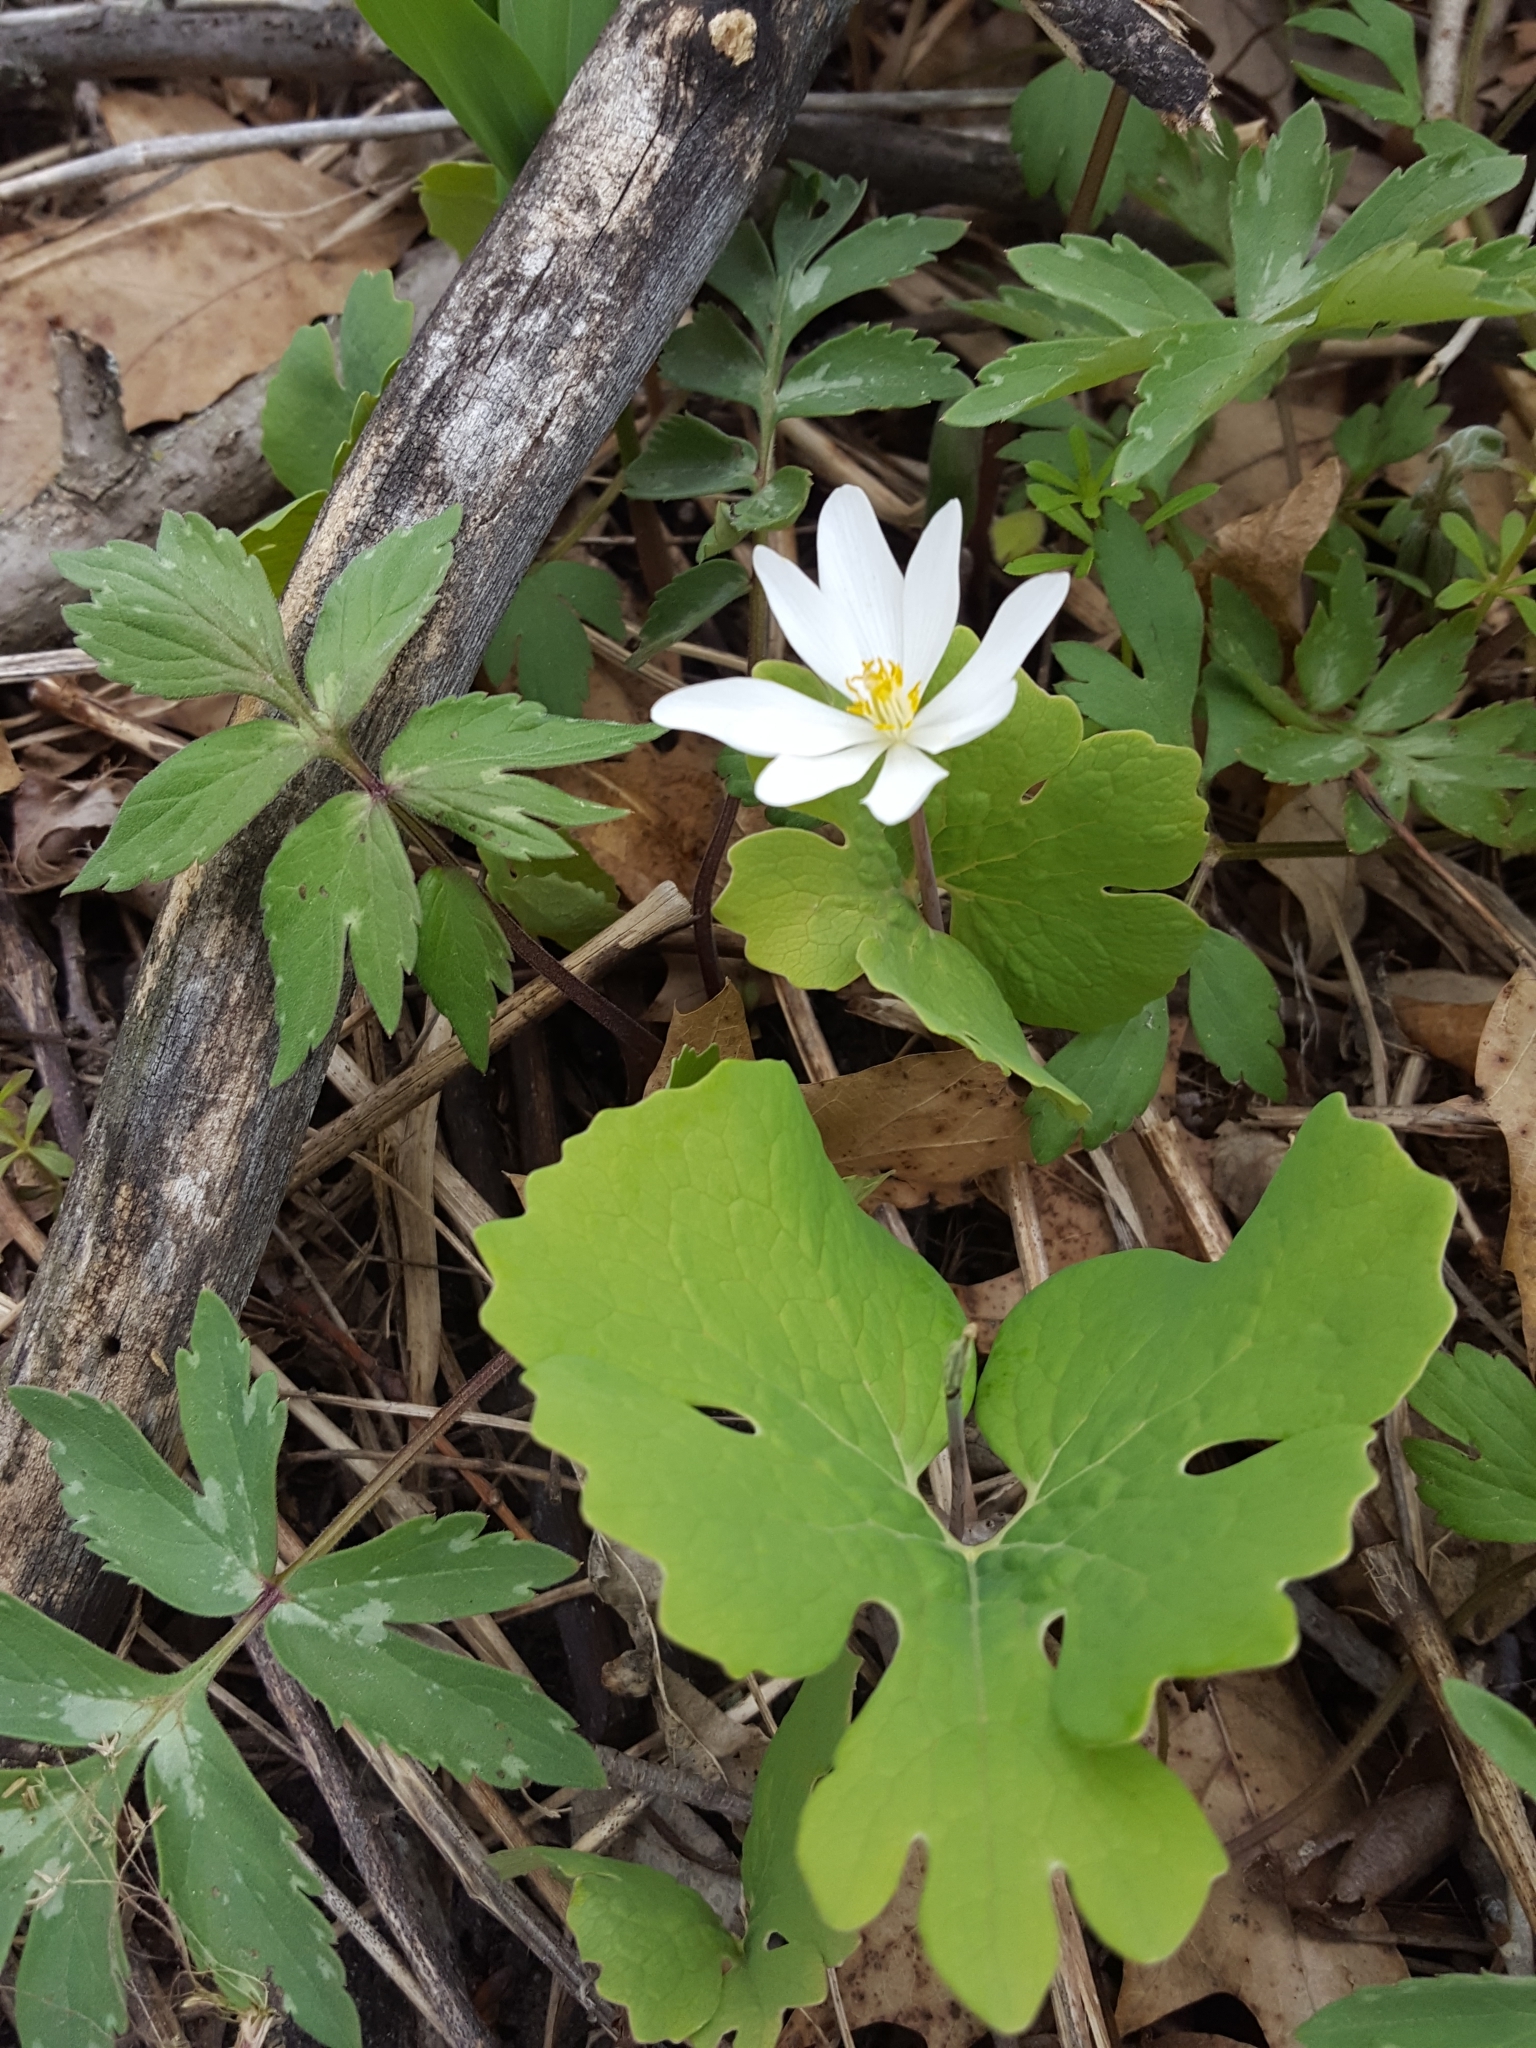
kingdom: Plantae
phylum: Tracheophyta
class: Magnoliopsida
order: Ranunculales
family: Papaveraceae
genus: Sanguinaria
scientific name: Sanguinaria canadensis
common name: Bloodroot
